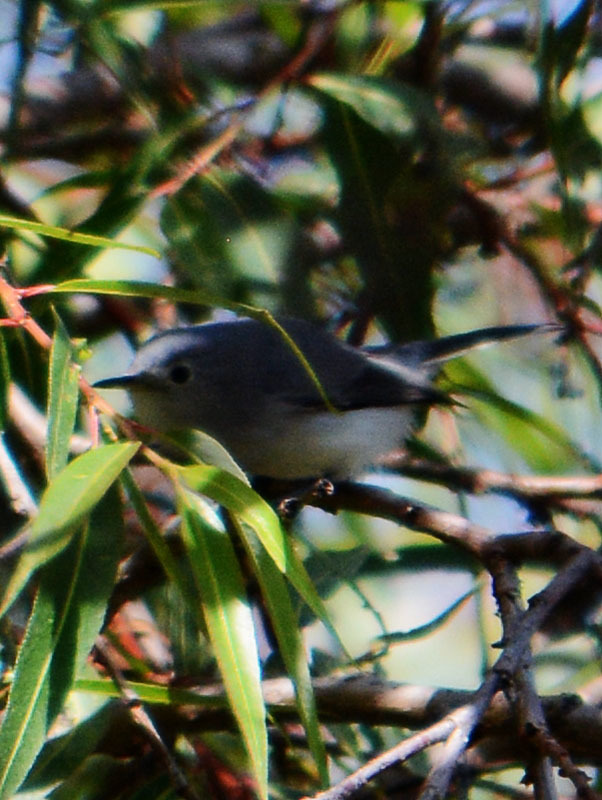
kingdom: Animalia
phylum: Chordata
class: Aves
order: Passeriformes
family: Polioptilidae
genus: Polioptila
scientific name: Polioptila caerulea
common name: Blue-gray gnatcatcher
